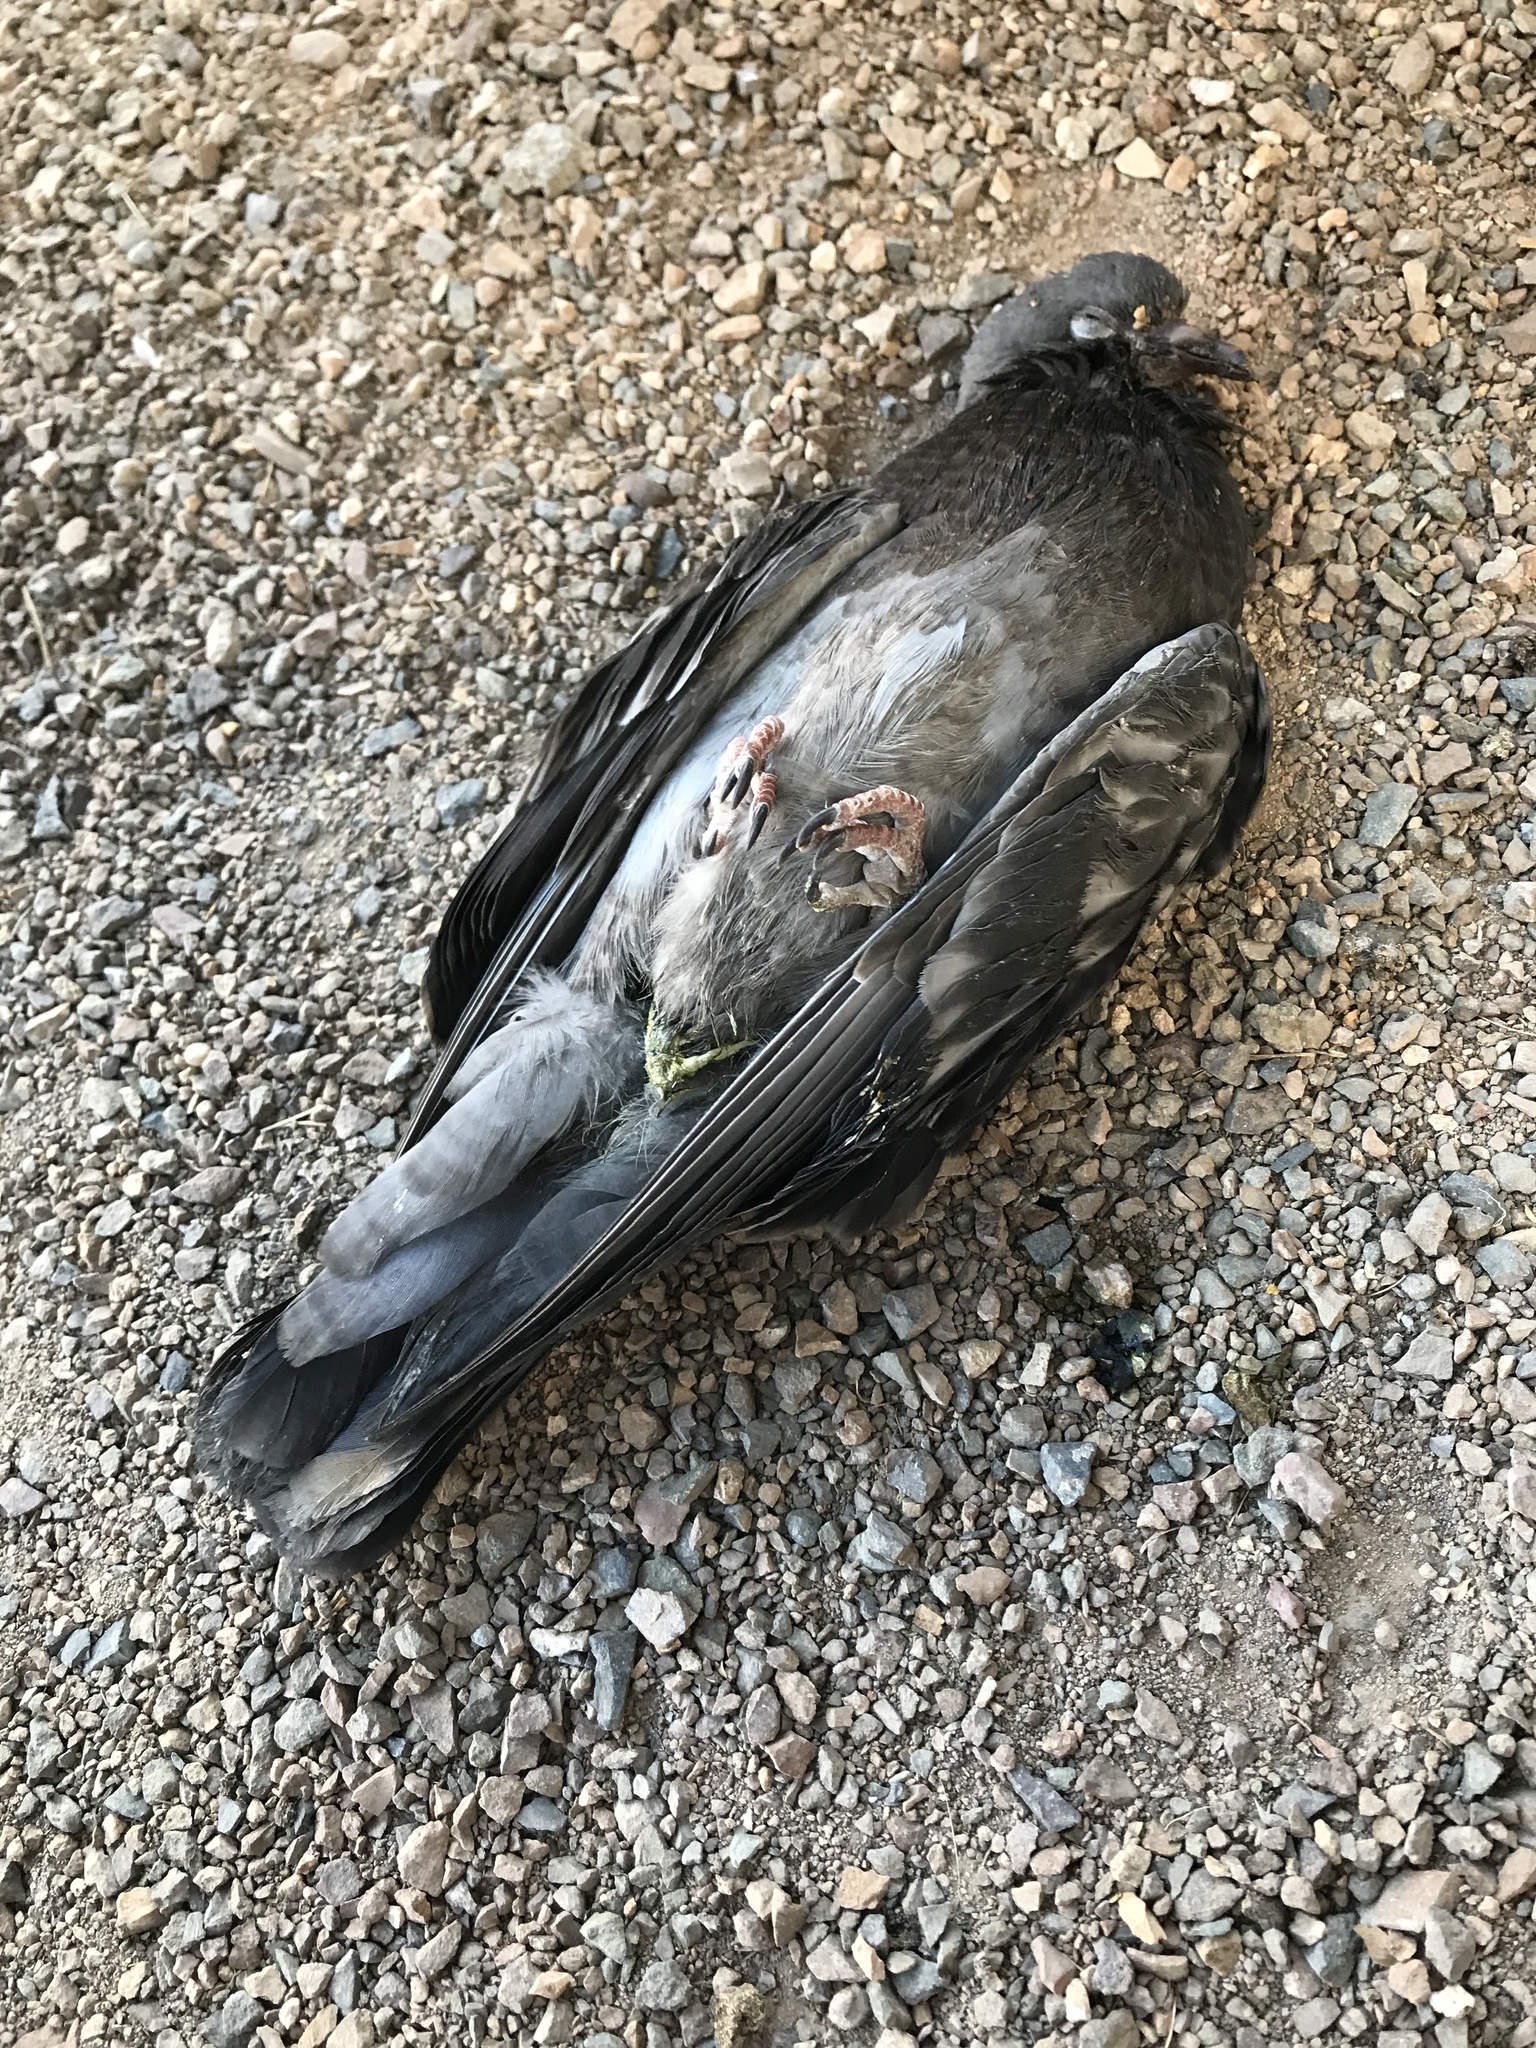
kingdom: Animalia
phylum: Chordata
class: Aves
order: Columbiformes
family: Columbidae
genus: Columba
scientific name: Columba livia
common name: Rock pigeon
